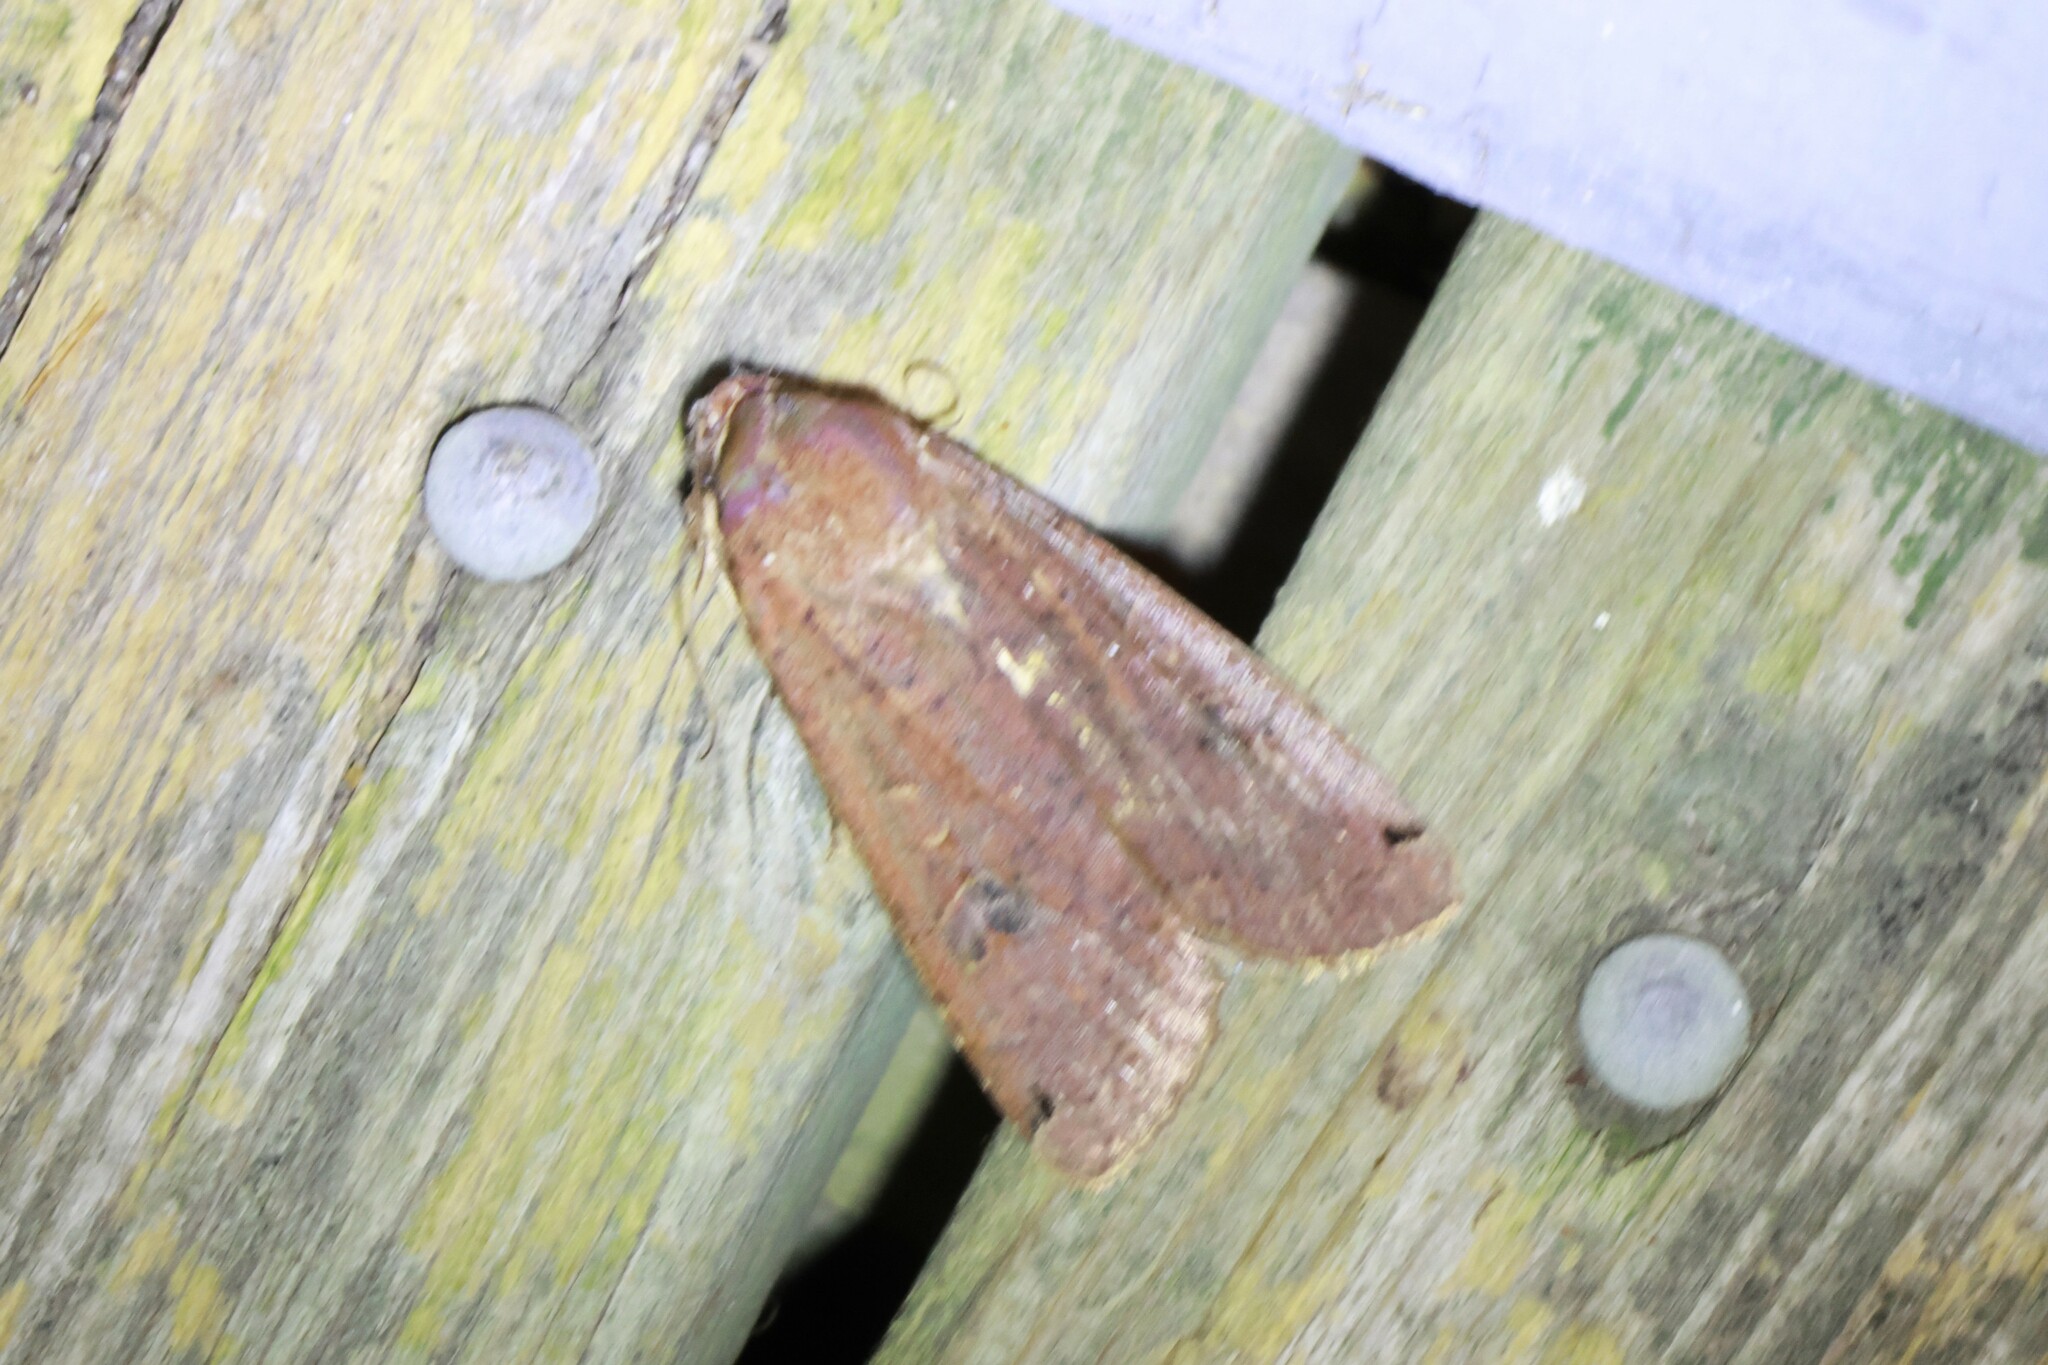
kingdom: Animalia
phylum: Arthropoda
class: Insecta
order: Lepidoptera
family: Noctuidae
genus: Noctua
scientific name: Noctua pronuba
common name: Large yellow underwing
